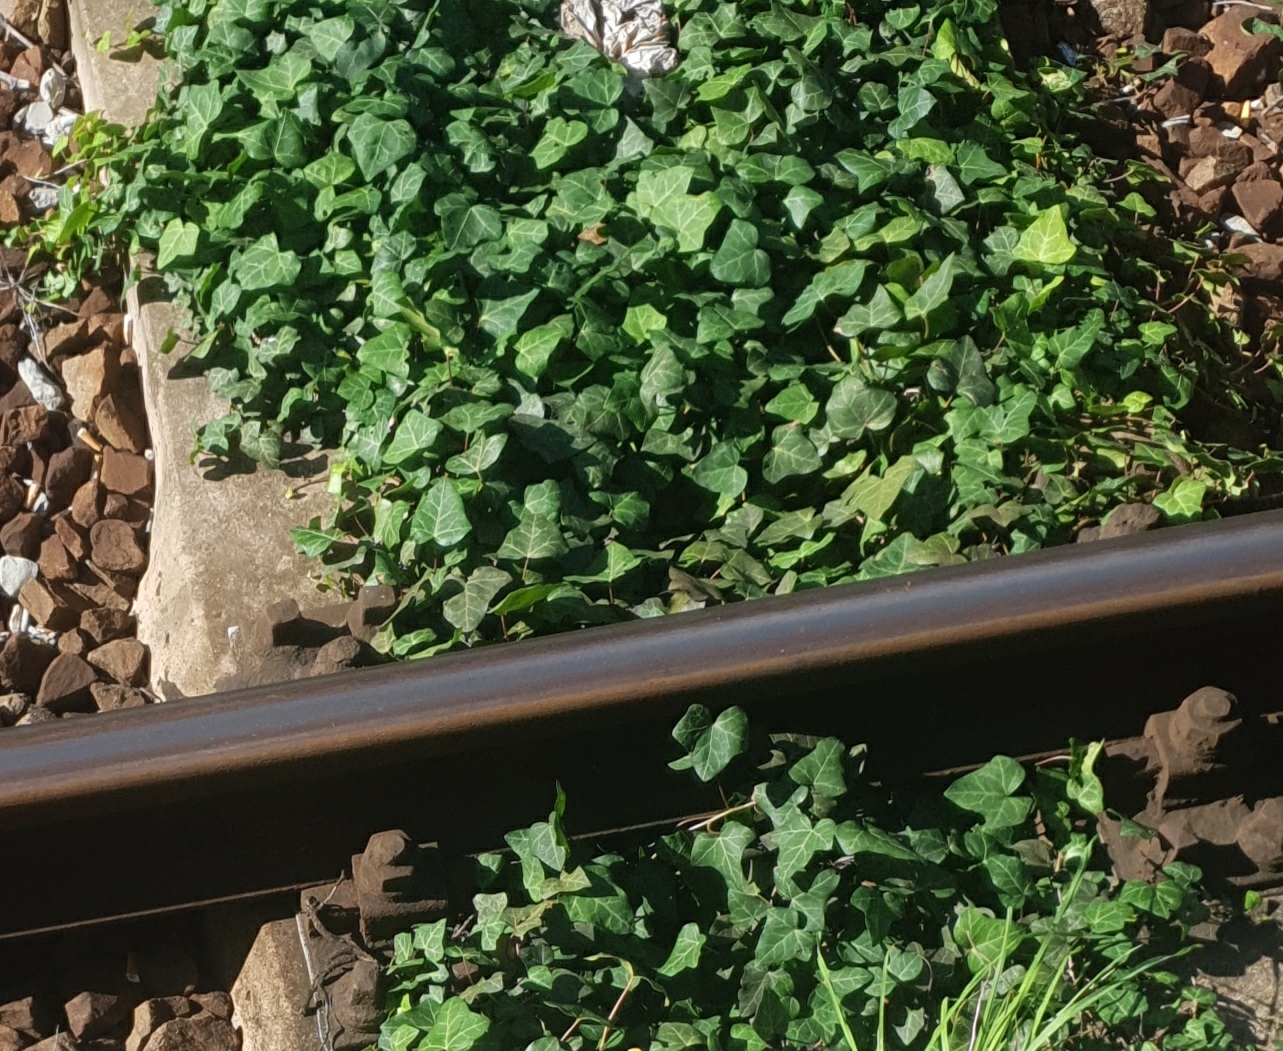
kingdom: Plantae
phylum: Tracheophyta
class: Magnoliopsida
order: Apiales
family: Araliaceae
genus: Hedera
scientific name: Hedera helix
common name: Ivy
